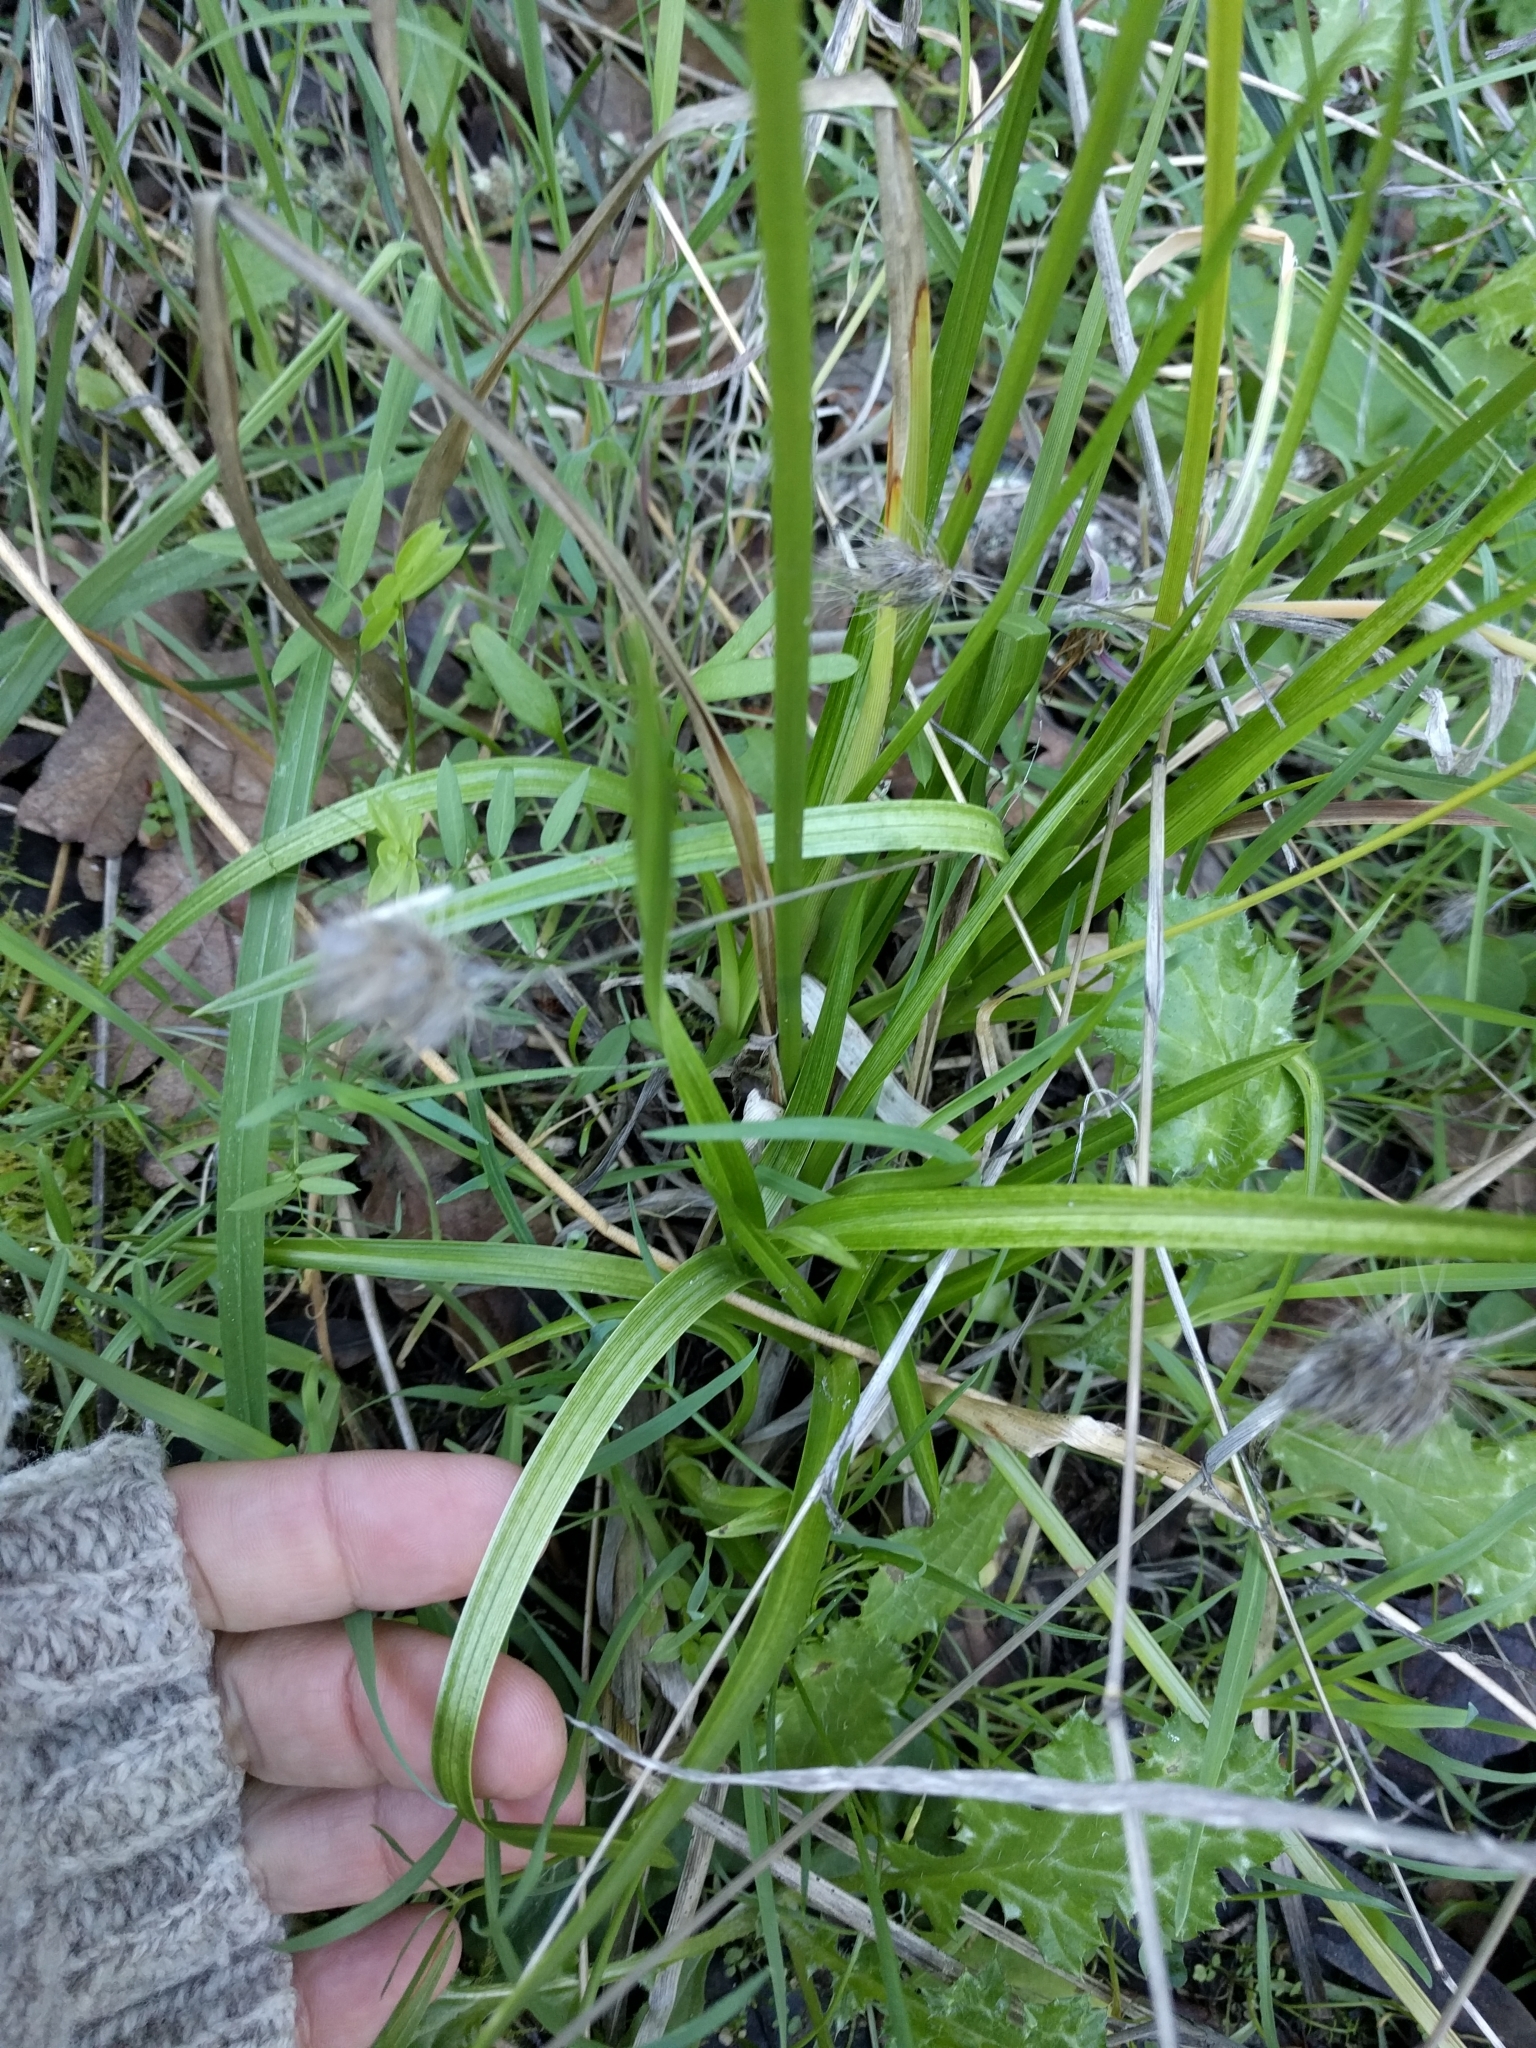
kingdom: Plantae
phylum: Tracheophyta
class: Liliopsida
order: Poales
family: Cyperaceae
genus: Cyperus
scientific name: Cyperus eragrostis
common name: Tall flatsedge
